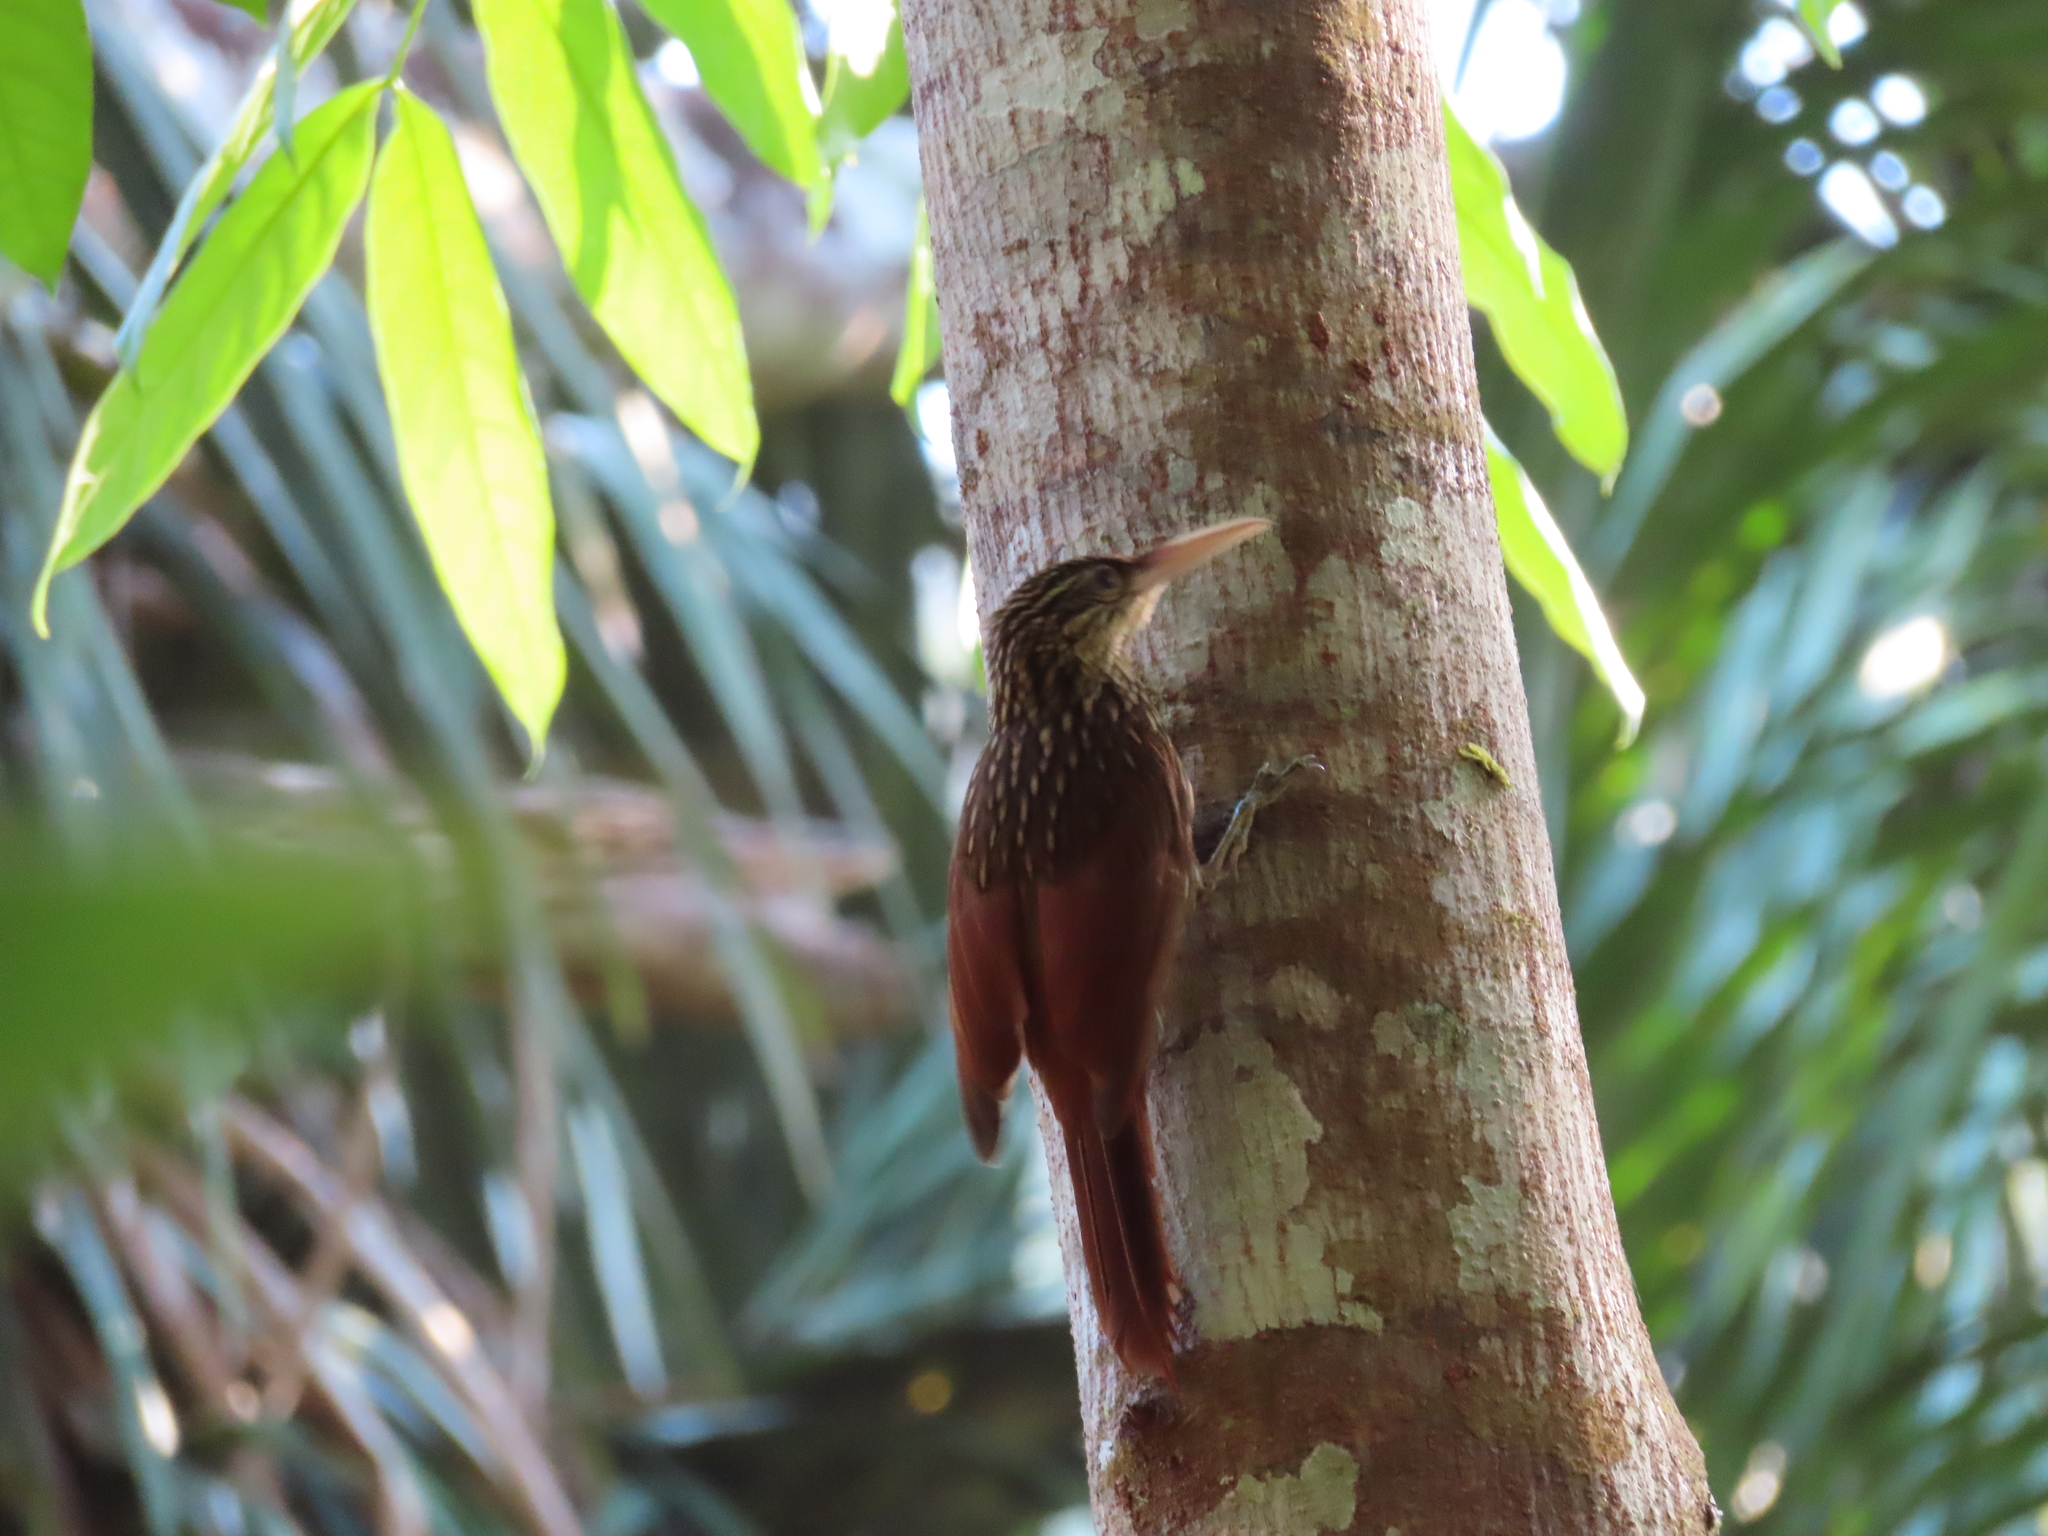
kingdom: Animalia
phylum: Chordata
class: Aves
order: Passeriformes
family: Furnariidae
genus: Xiphorhynchus
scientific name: Xiphorhynchus flavigaster
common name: Ivory-billed woodcreeper
